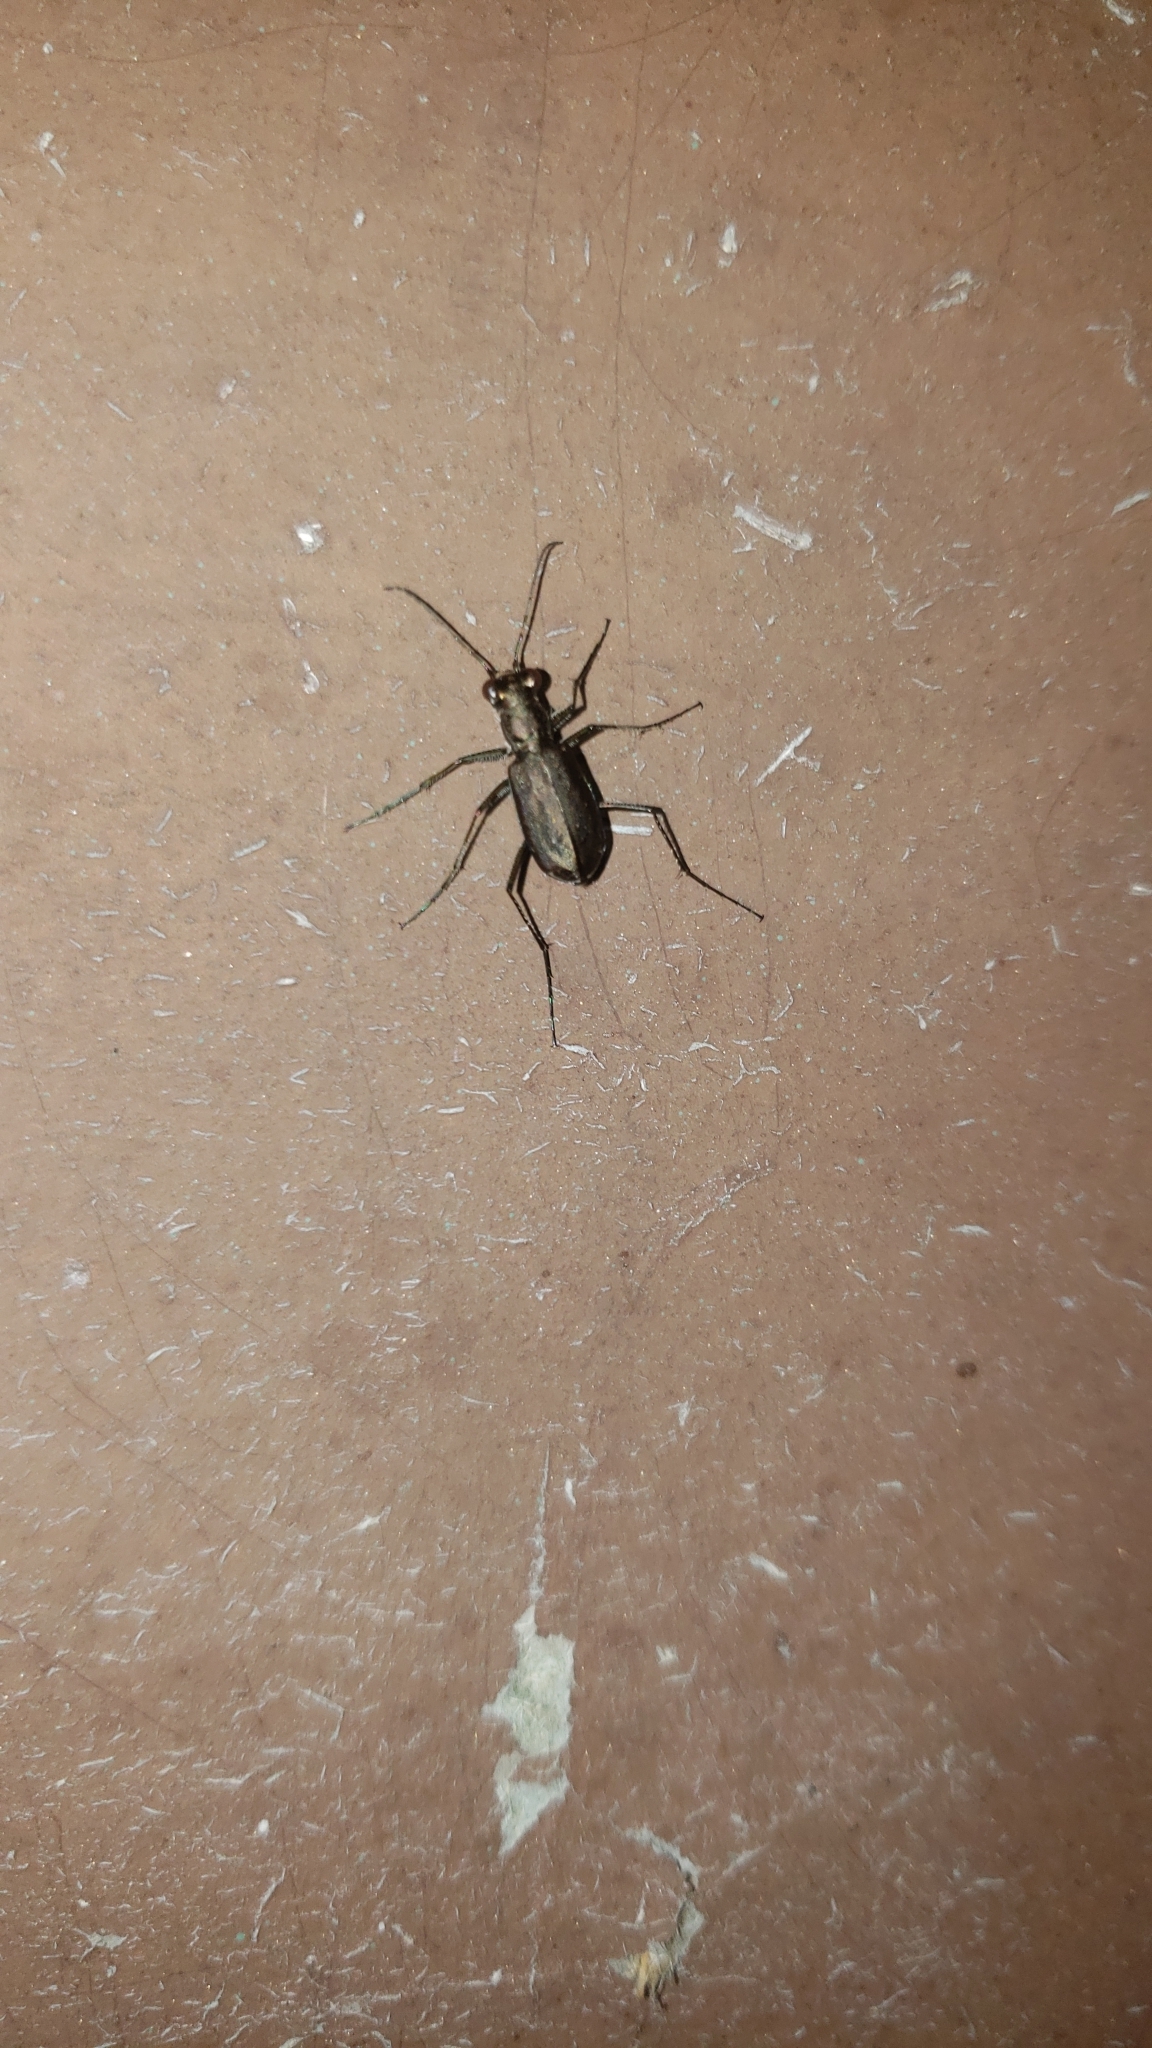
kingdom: Animalia
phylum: Arthropoda
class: Insecta
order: Coleoptera
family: Carabidae
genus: Cicindela
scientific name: Cicindela punctulata
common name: Punctured tiger beetle
